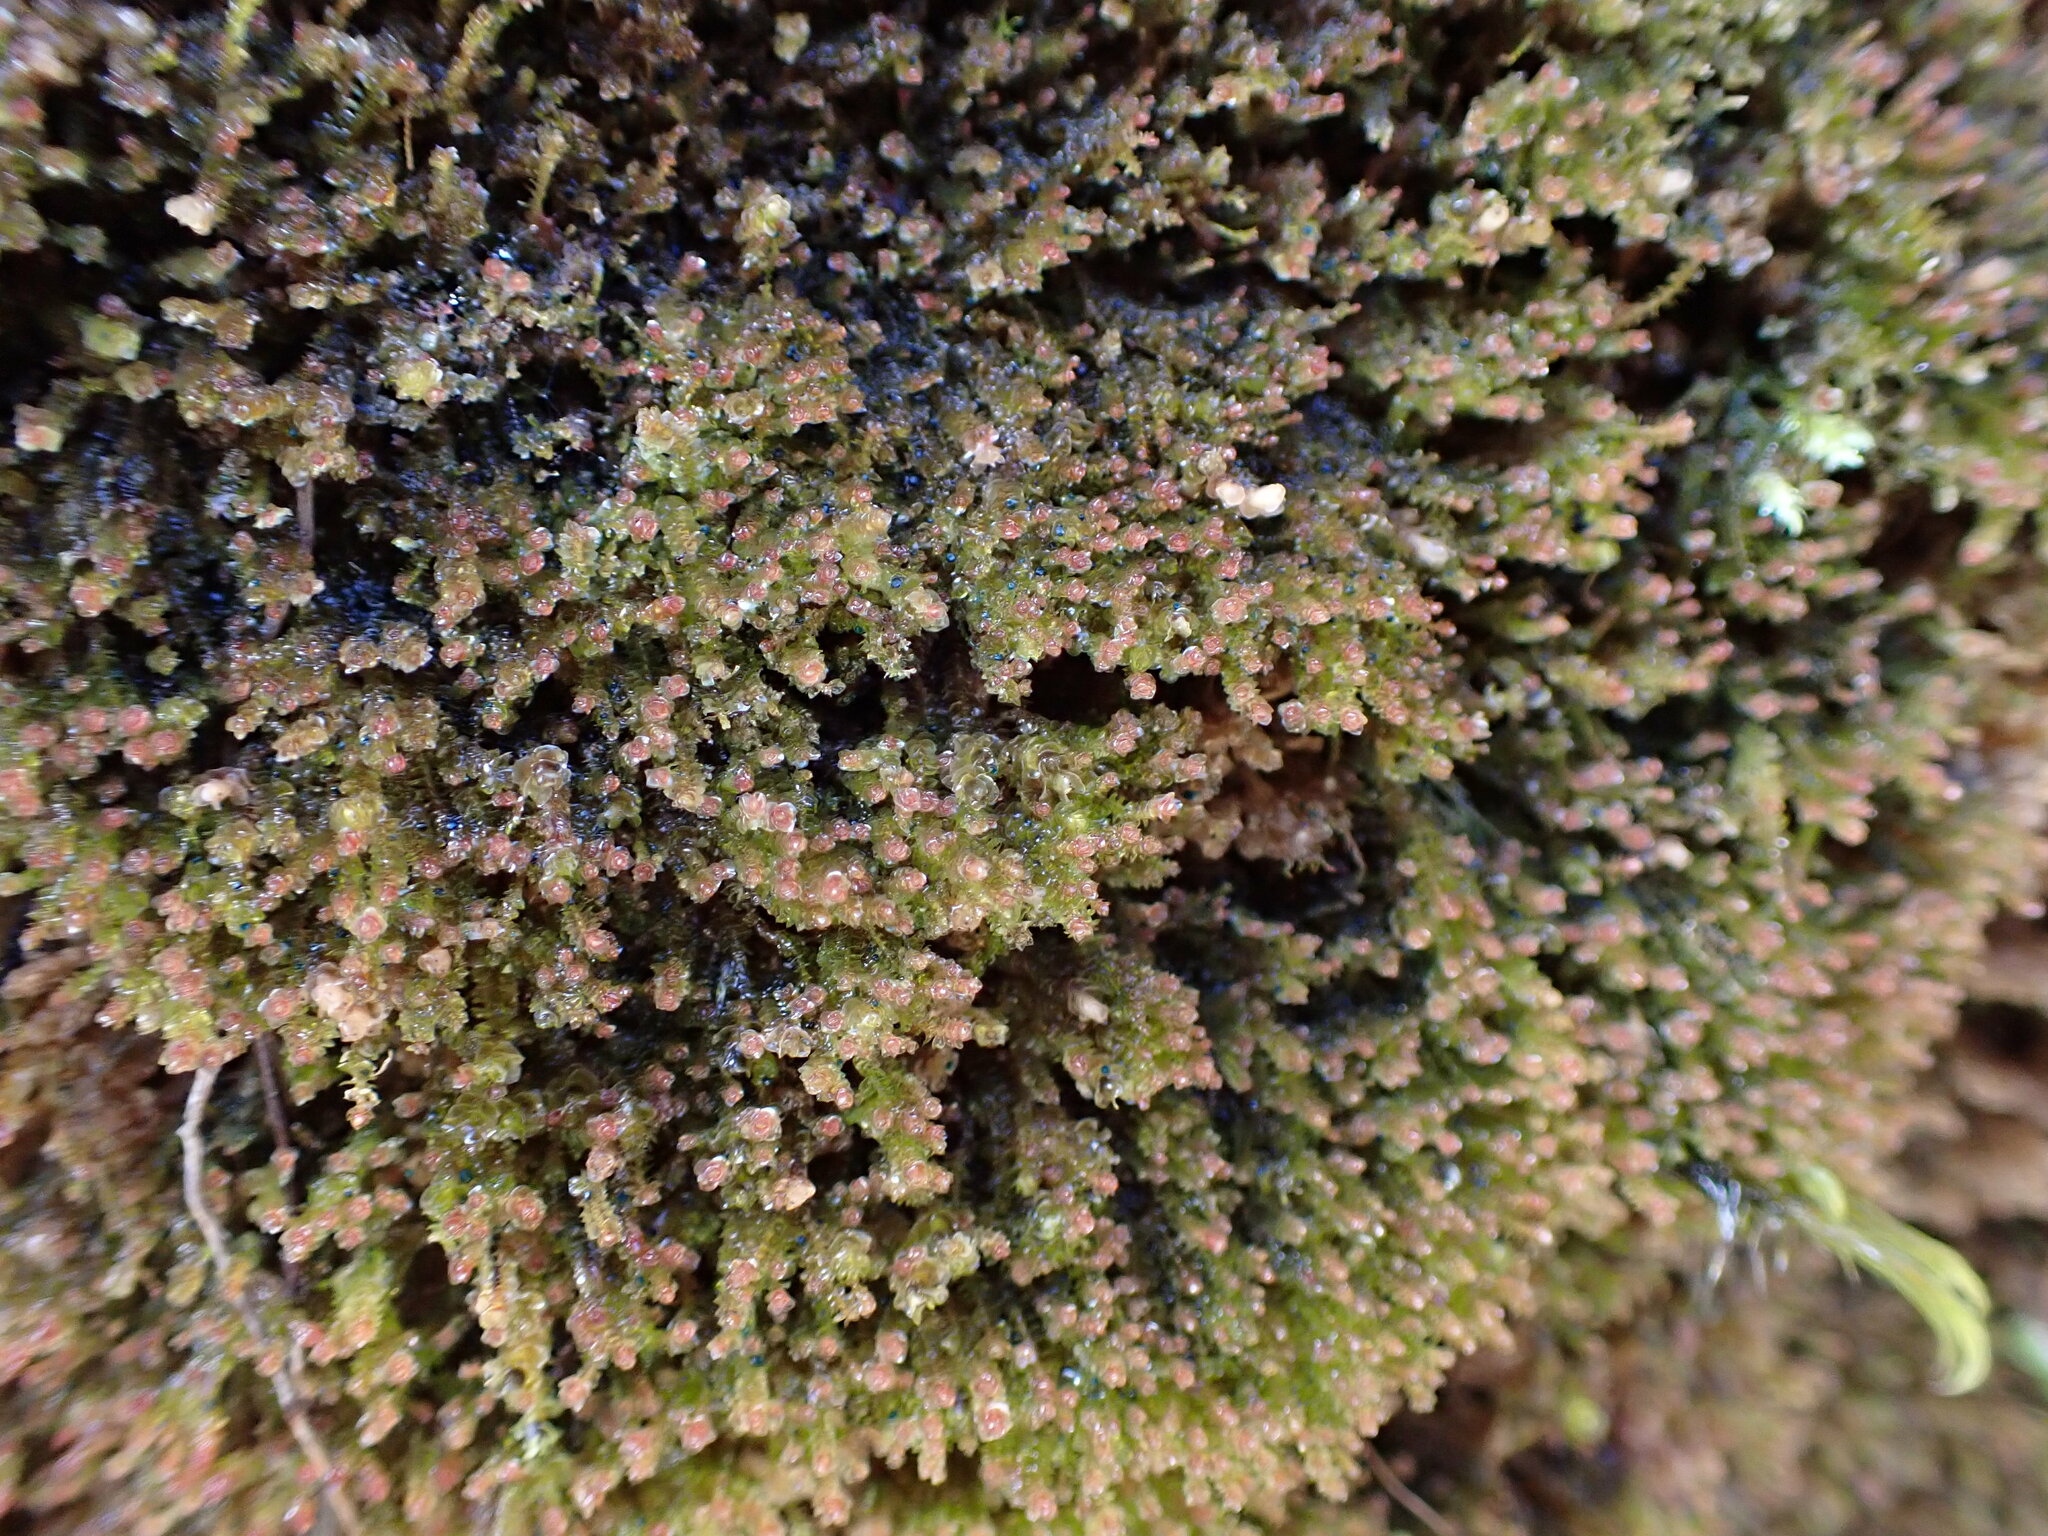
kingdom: Plantae
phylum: Marchantiophyta
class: Jungermanniopsida
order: Jungermanniales
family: Gymnomitriaceae
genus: Marsupella
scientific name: Marsupella emarginata
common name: Notched rustwort
